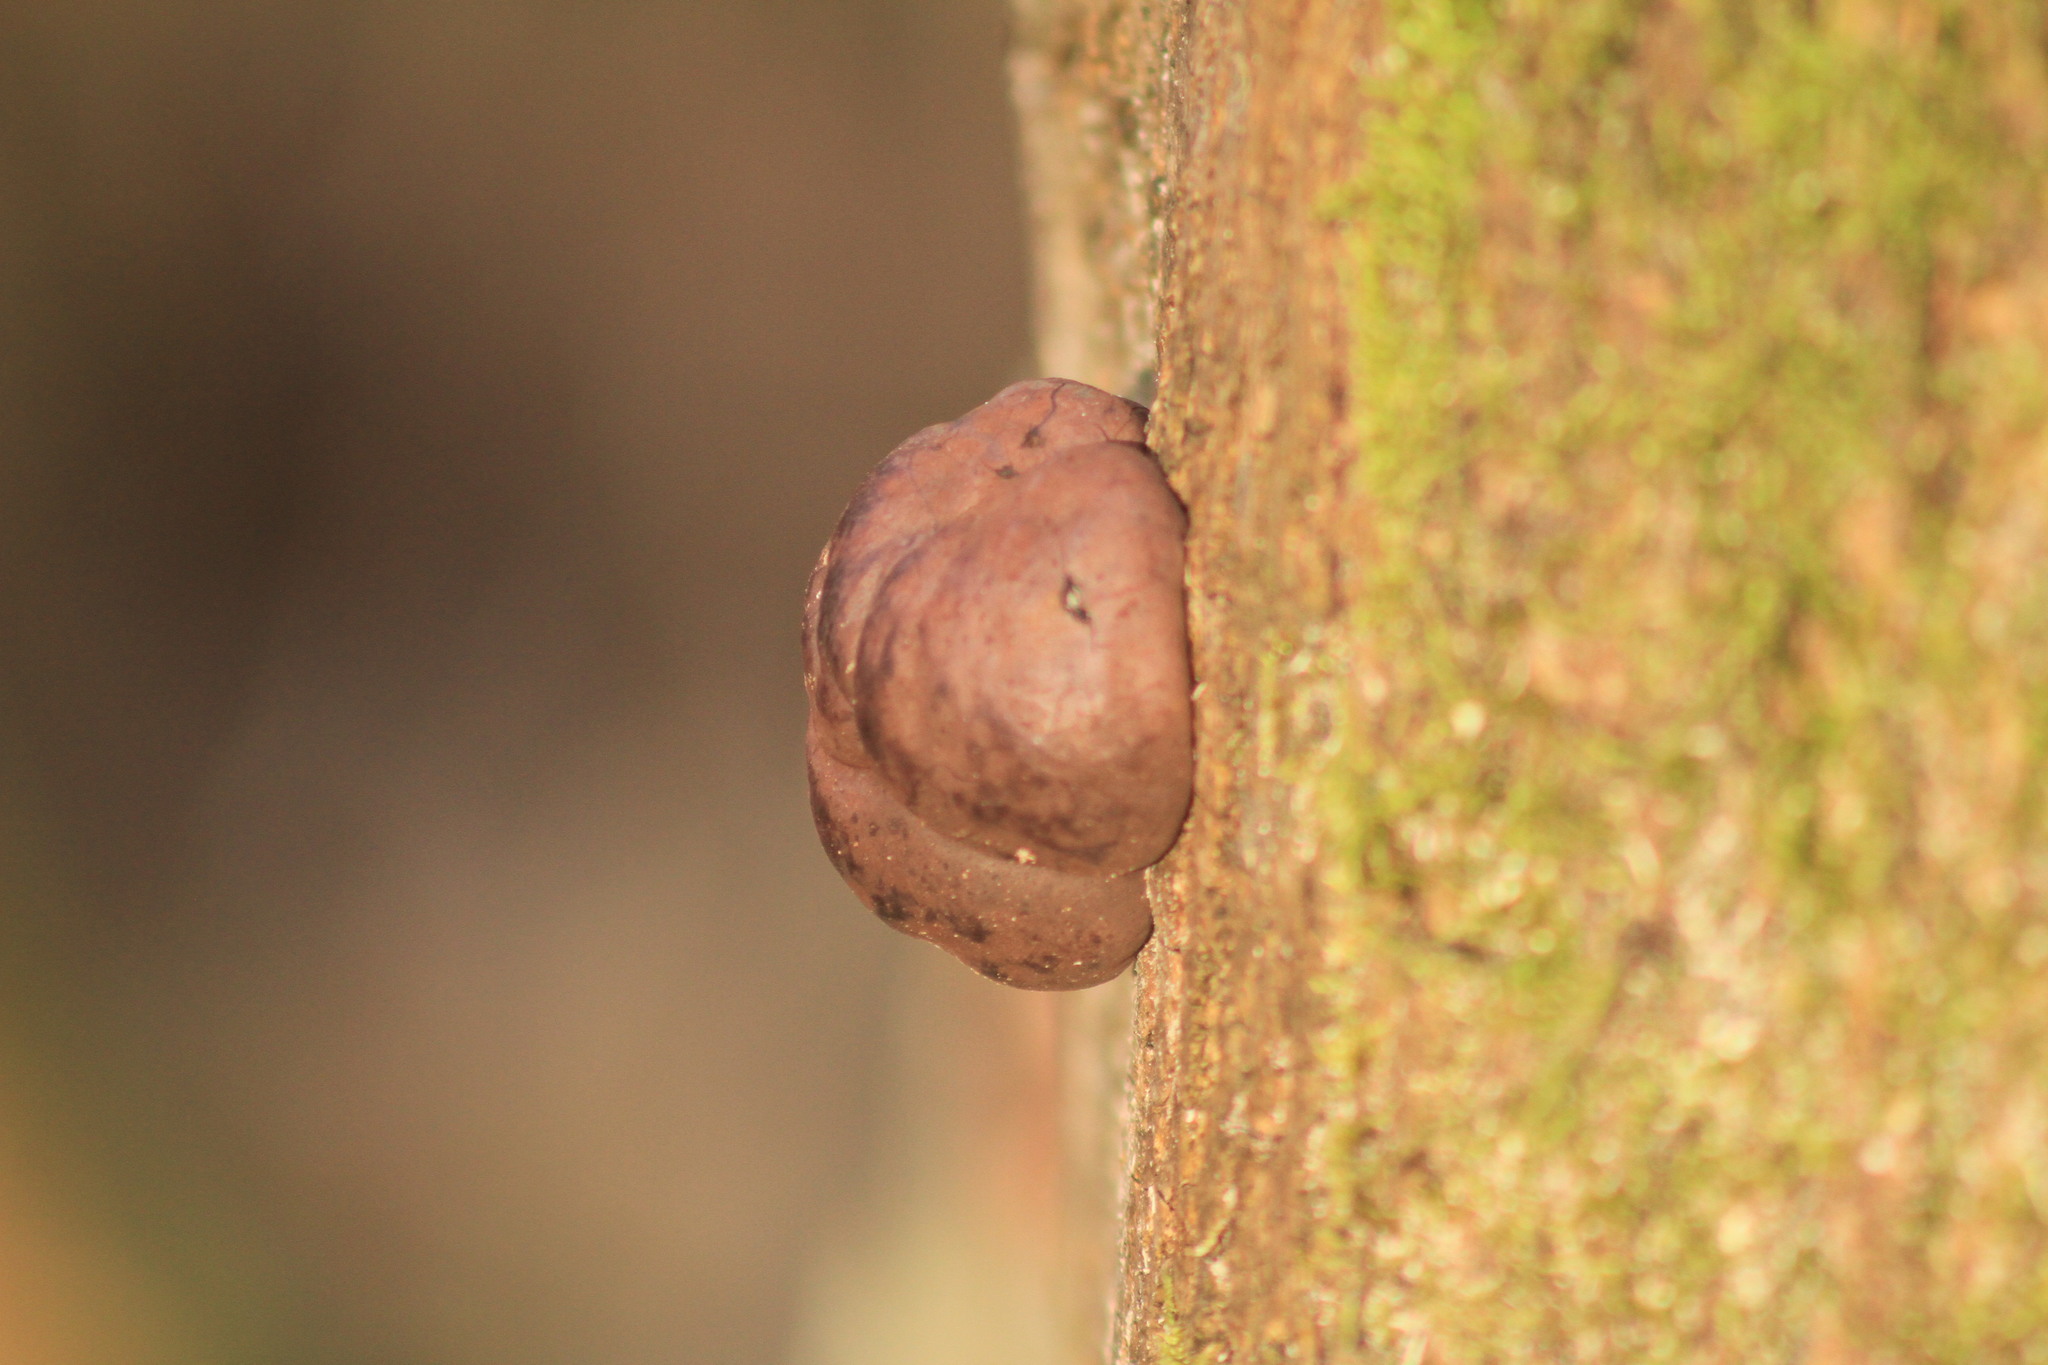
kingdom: Fungi
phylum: Ascomycota
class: Sordariomycetes
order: Xylariales
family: Hypoxylaceae
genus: Daldinia
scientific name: Daldinia concentrica
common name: Cramp balls
